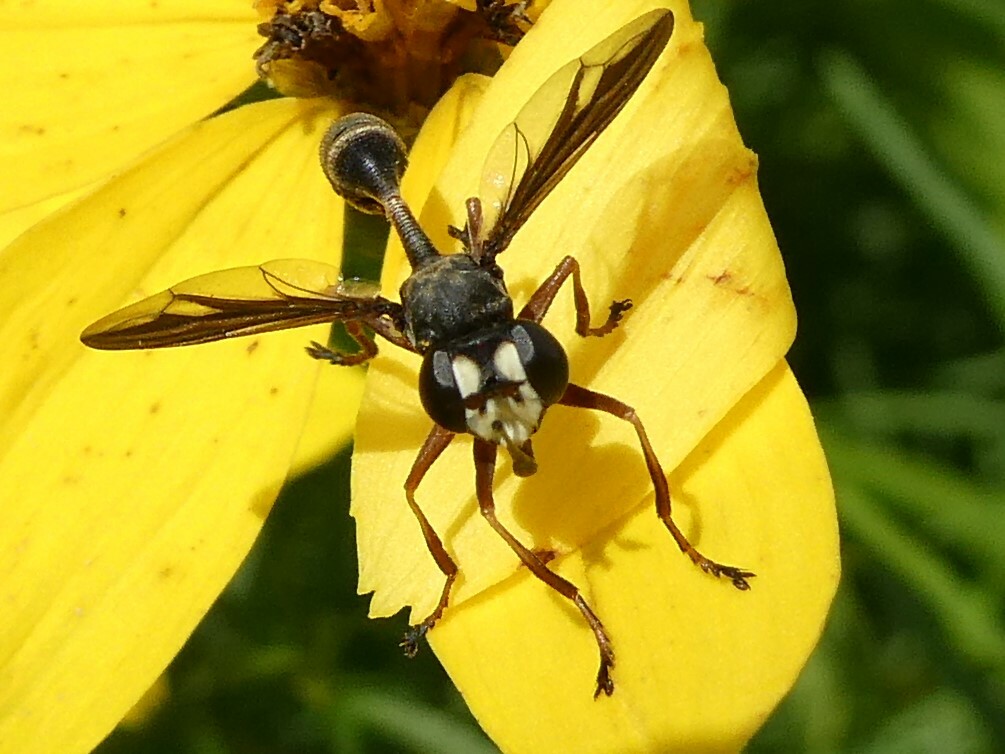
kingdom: Animalia
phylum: Arthropoda
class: Insecta
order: Diptera
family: Conopidae
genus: Physocephala
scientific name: Physocephala furcillata
